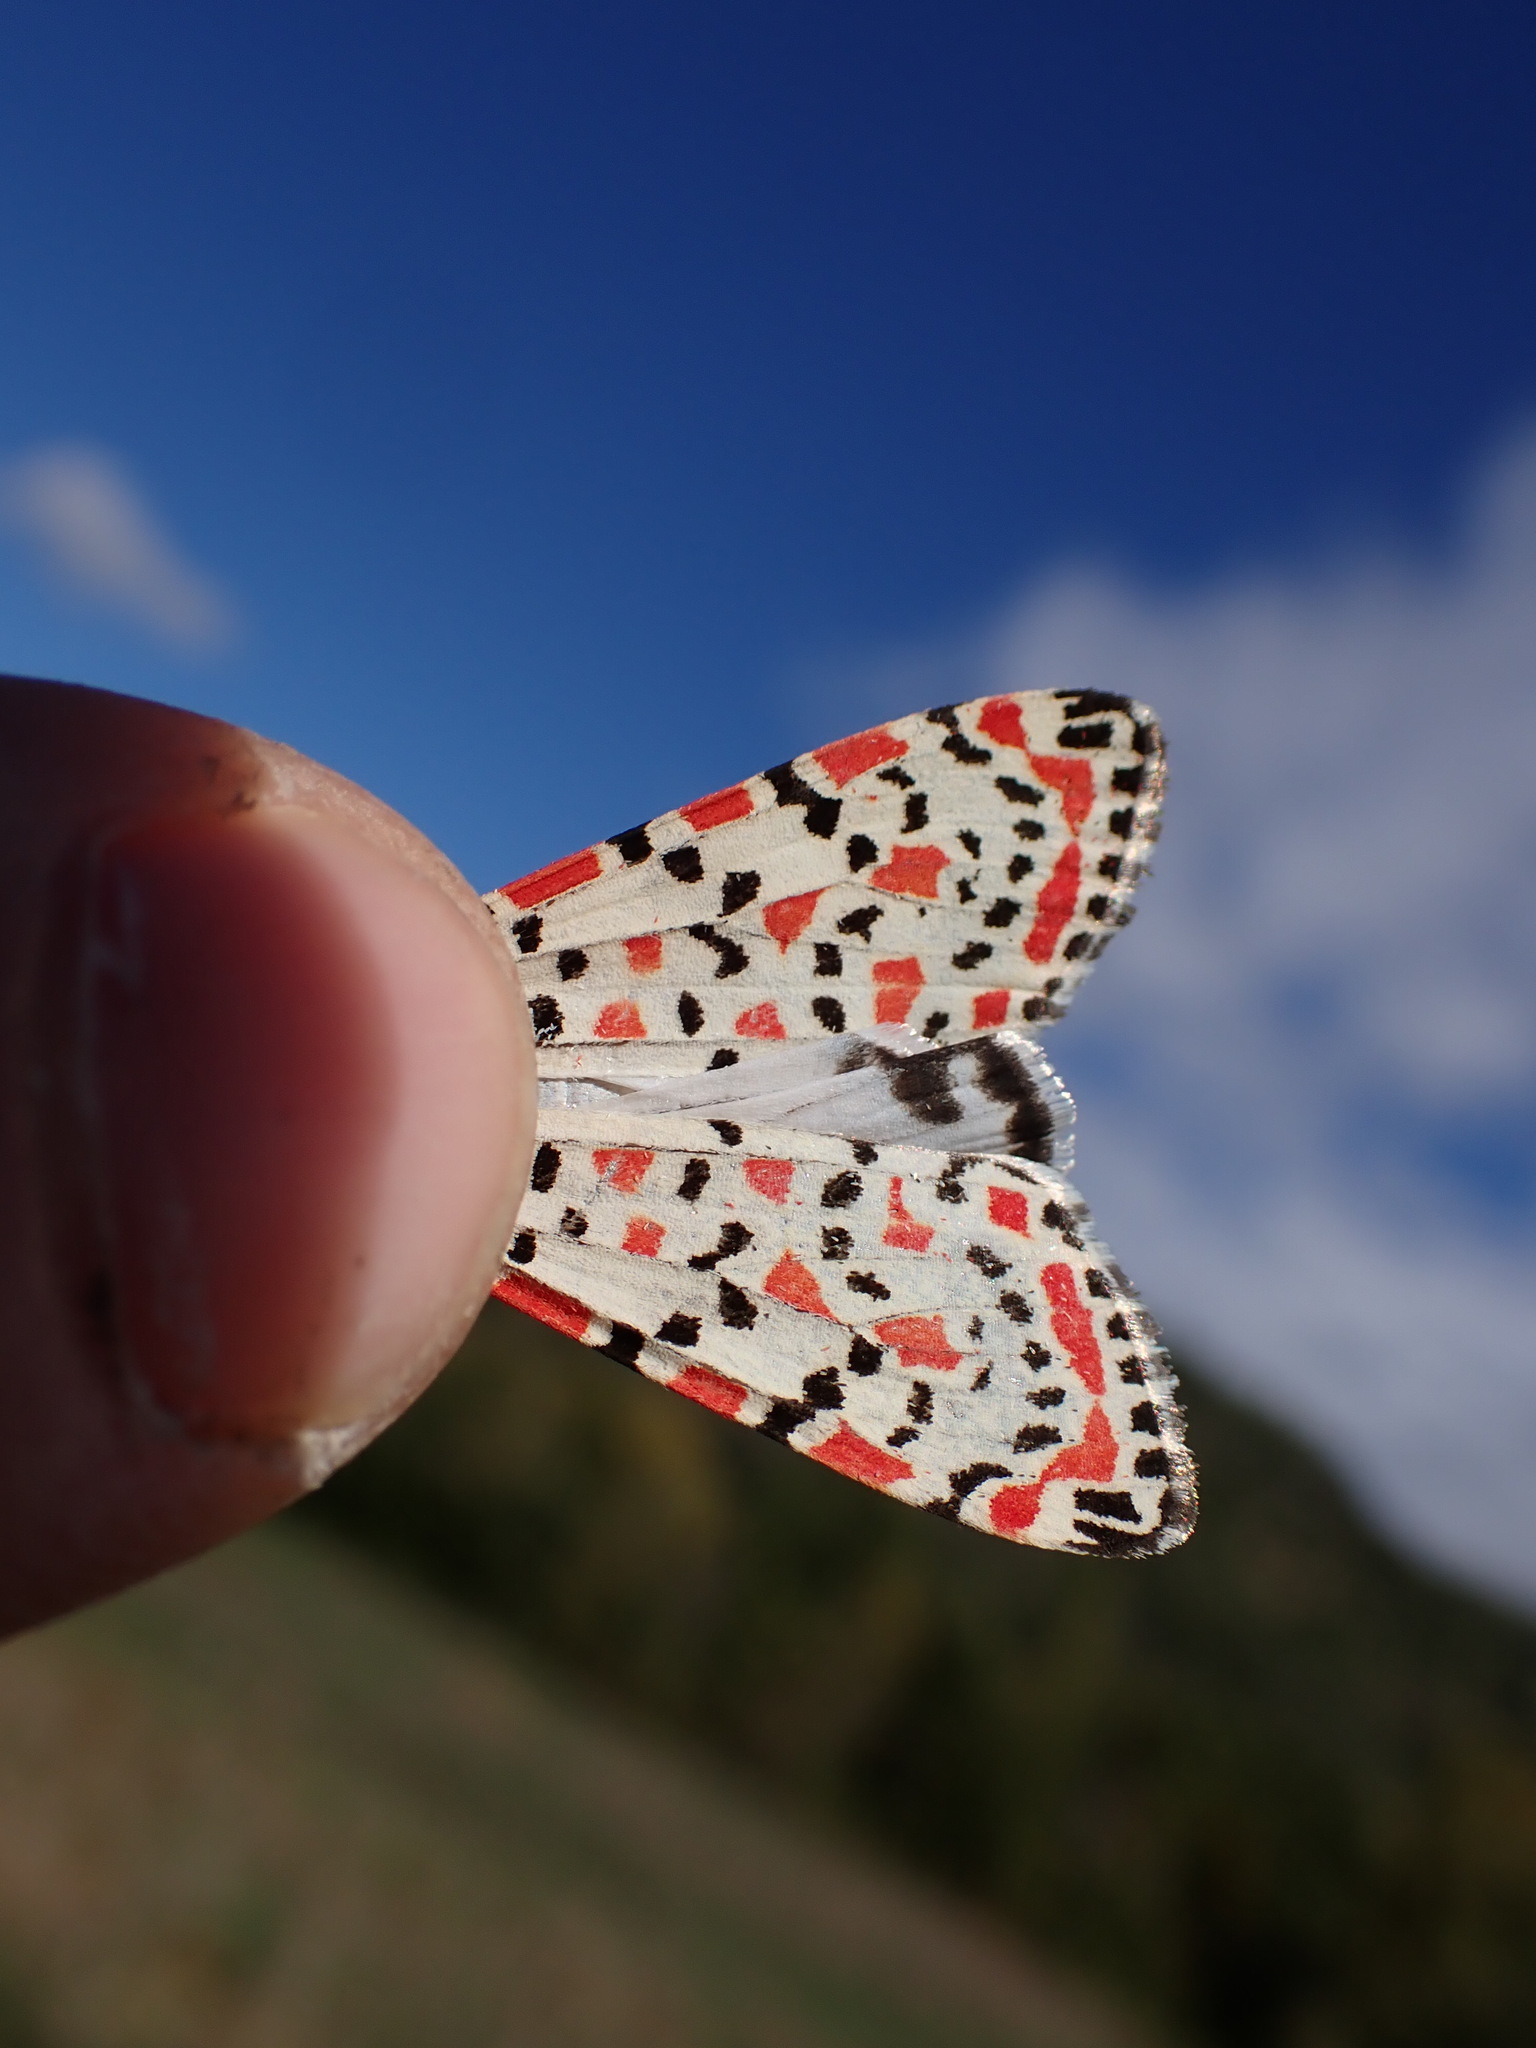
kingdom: Animalia
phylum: Arthropoda
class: Insecta
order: Lepidoptera
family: Erebidae
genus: Utetheisa
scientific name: Utetheisa pulchella
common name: Crimson speckled
